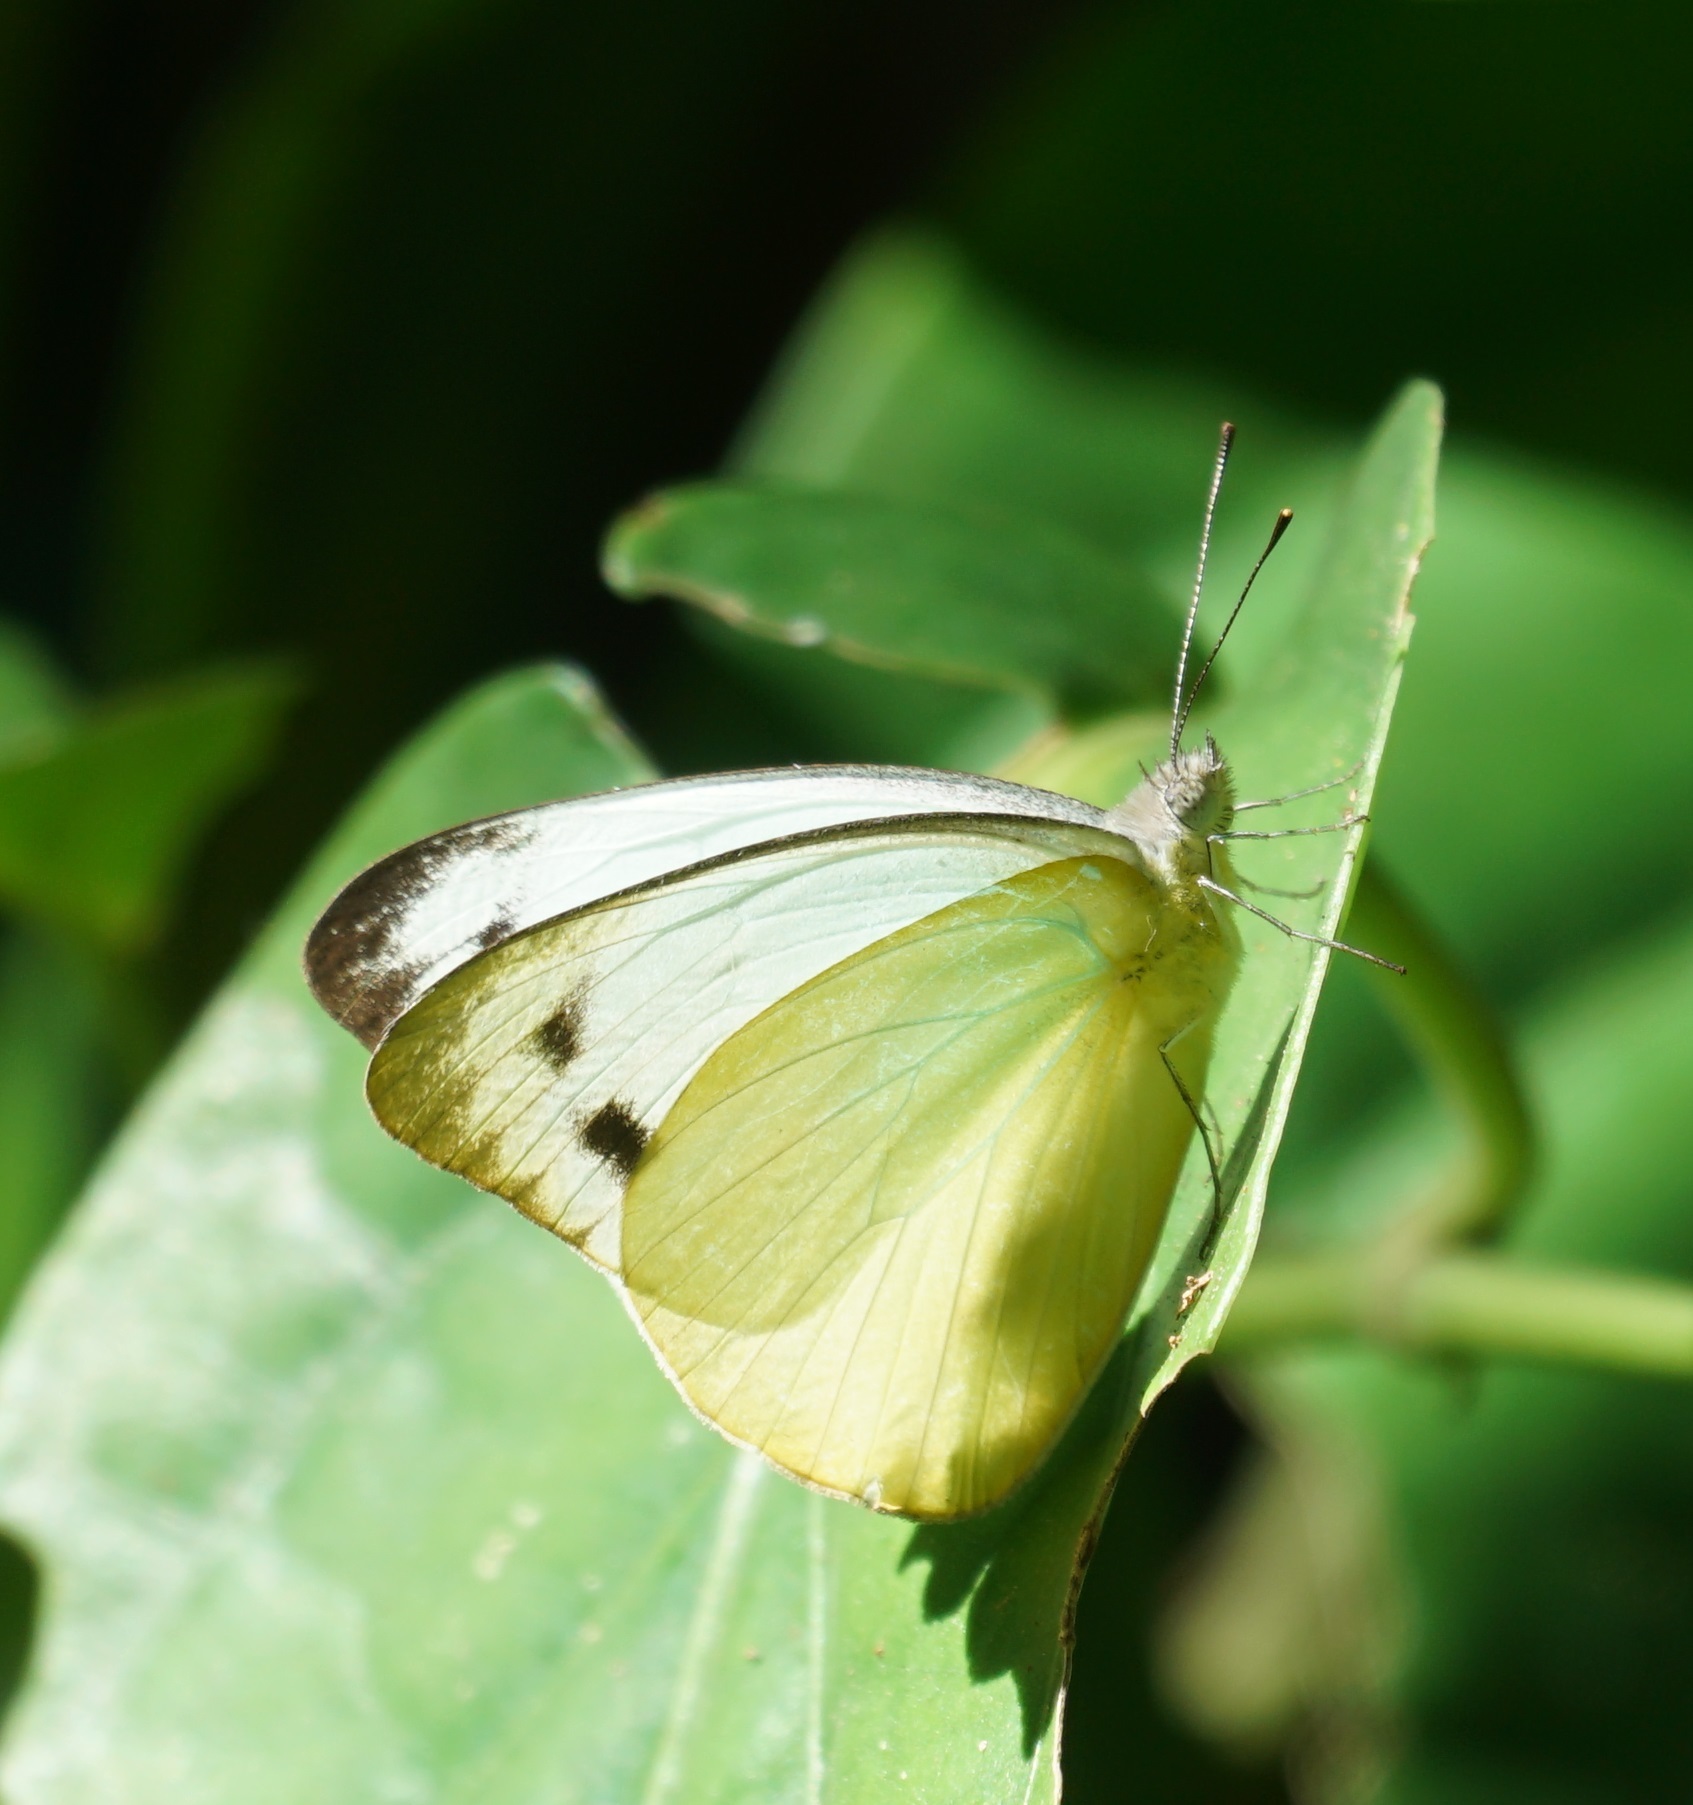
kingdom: Animalia
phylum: Arthropoda
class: Insecta
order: Lepidoptera
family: Pieridae
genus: Appias
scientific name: Appias paulina
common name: Ceylon lesser albatross
